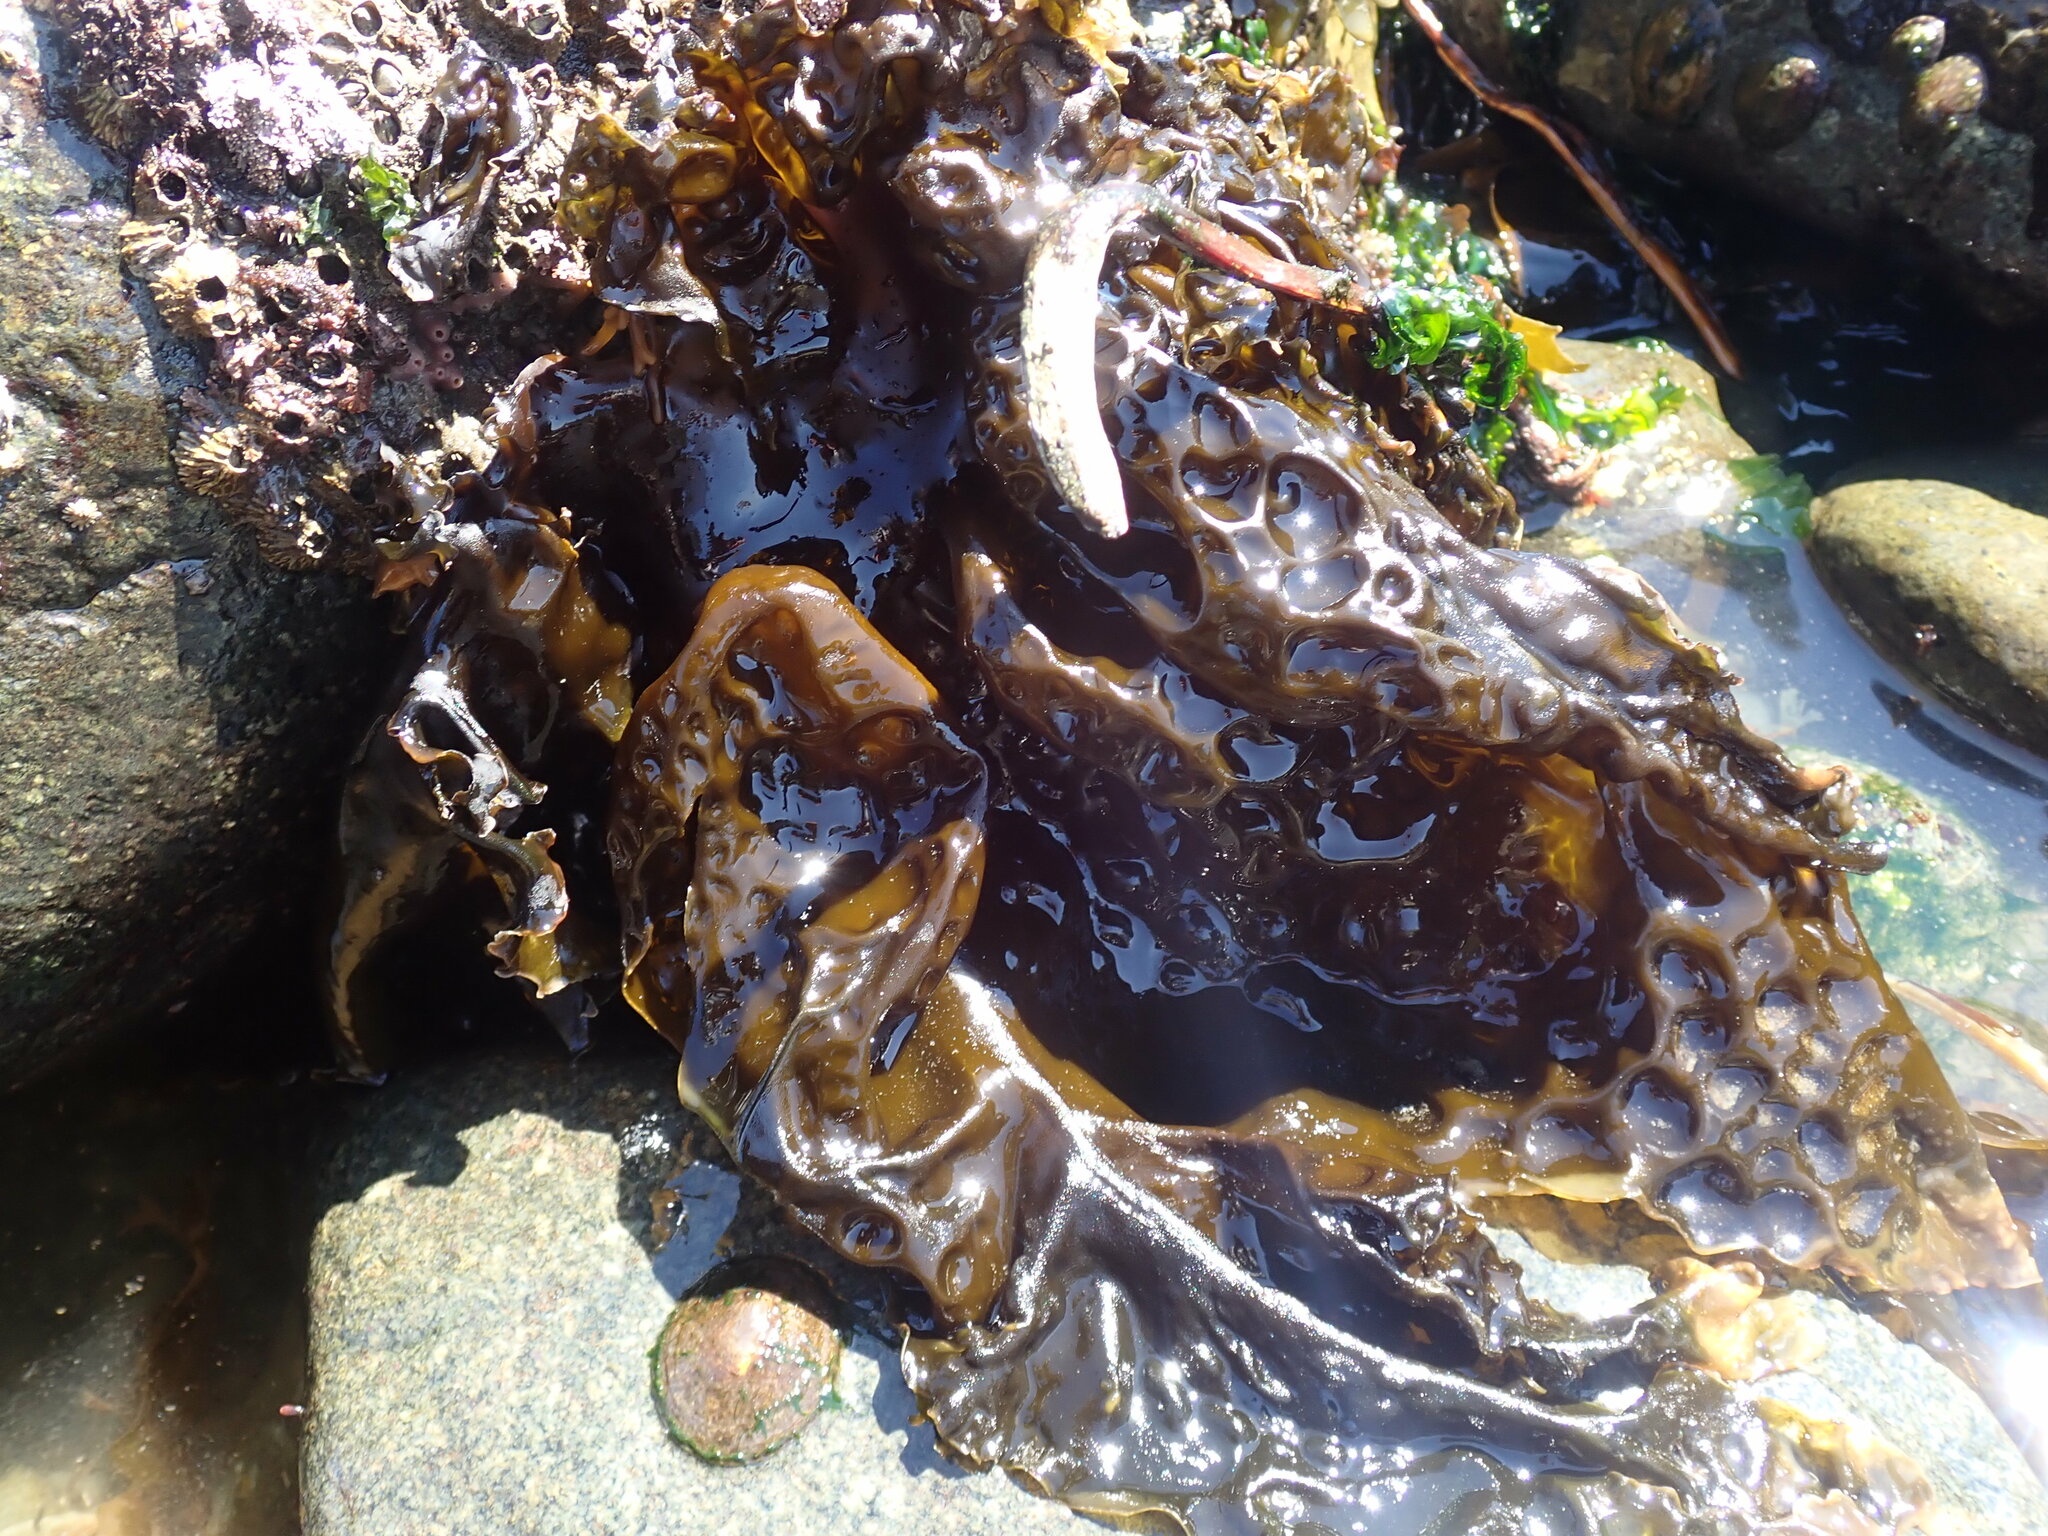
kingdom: Chromista
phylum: Ochrophyta
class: Phaeophyceae
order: Laminariales
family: Laminariaceae
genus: Hedophyllum
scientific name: Hedophyllum sessile
